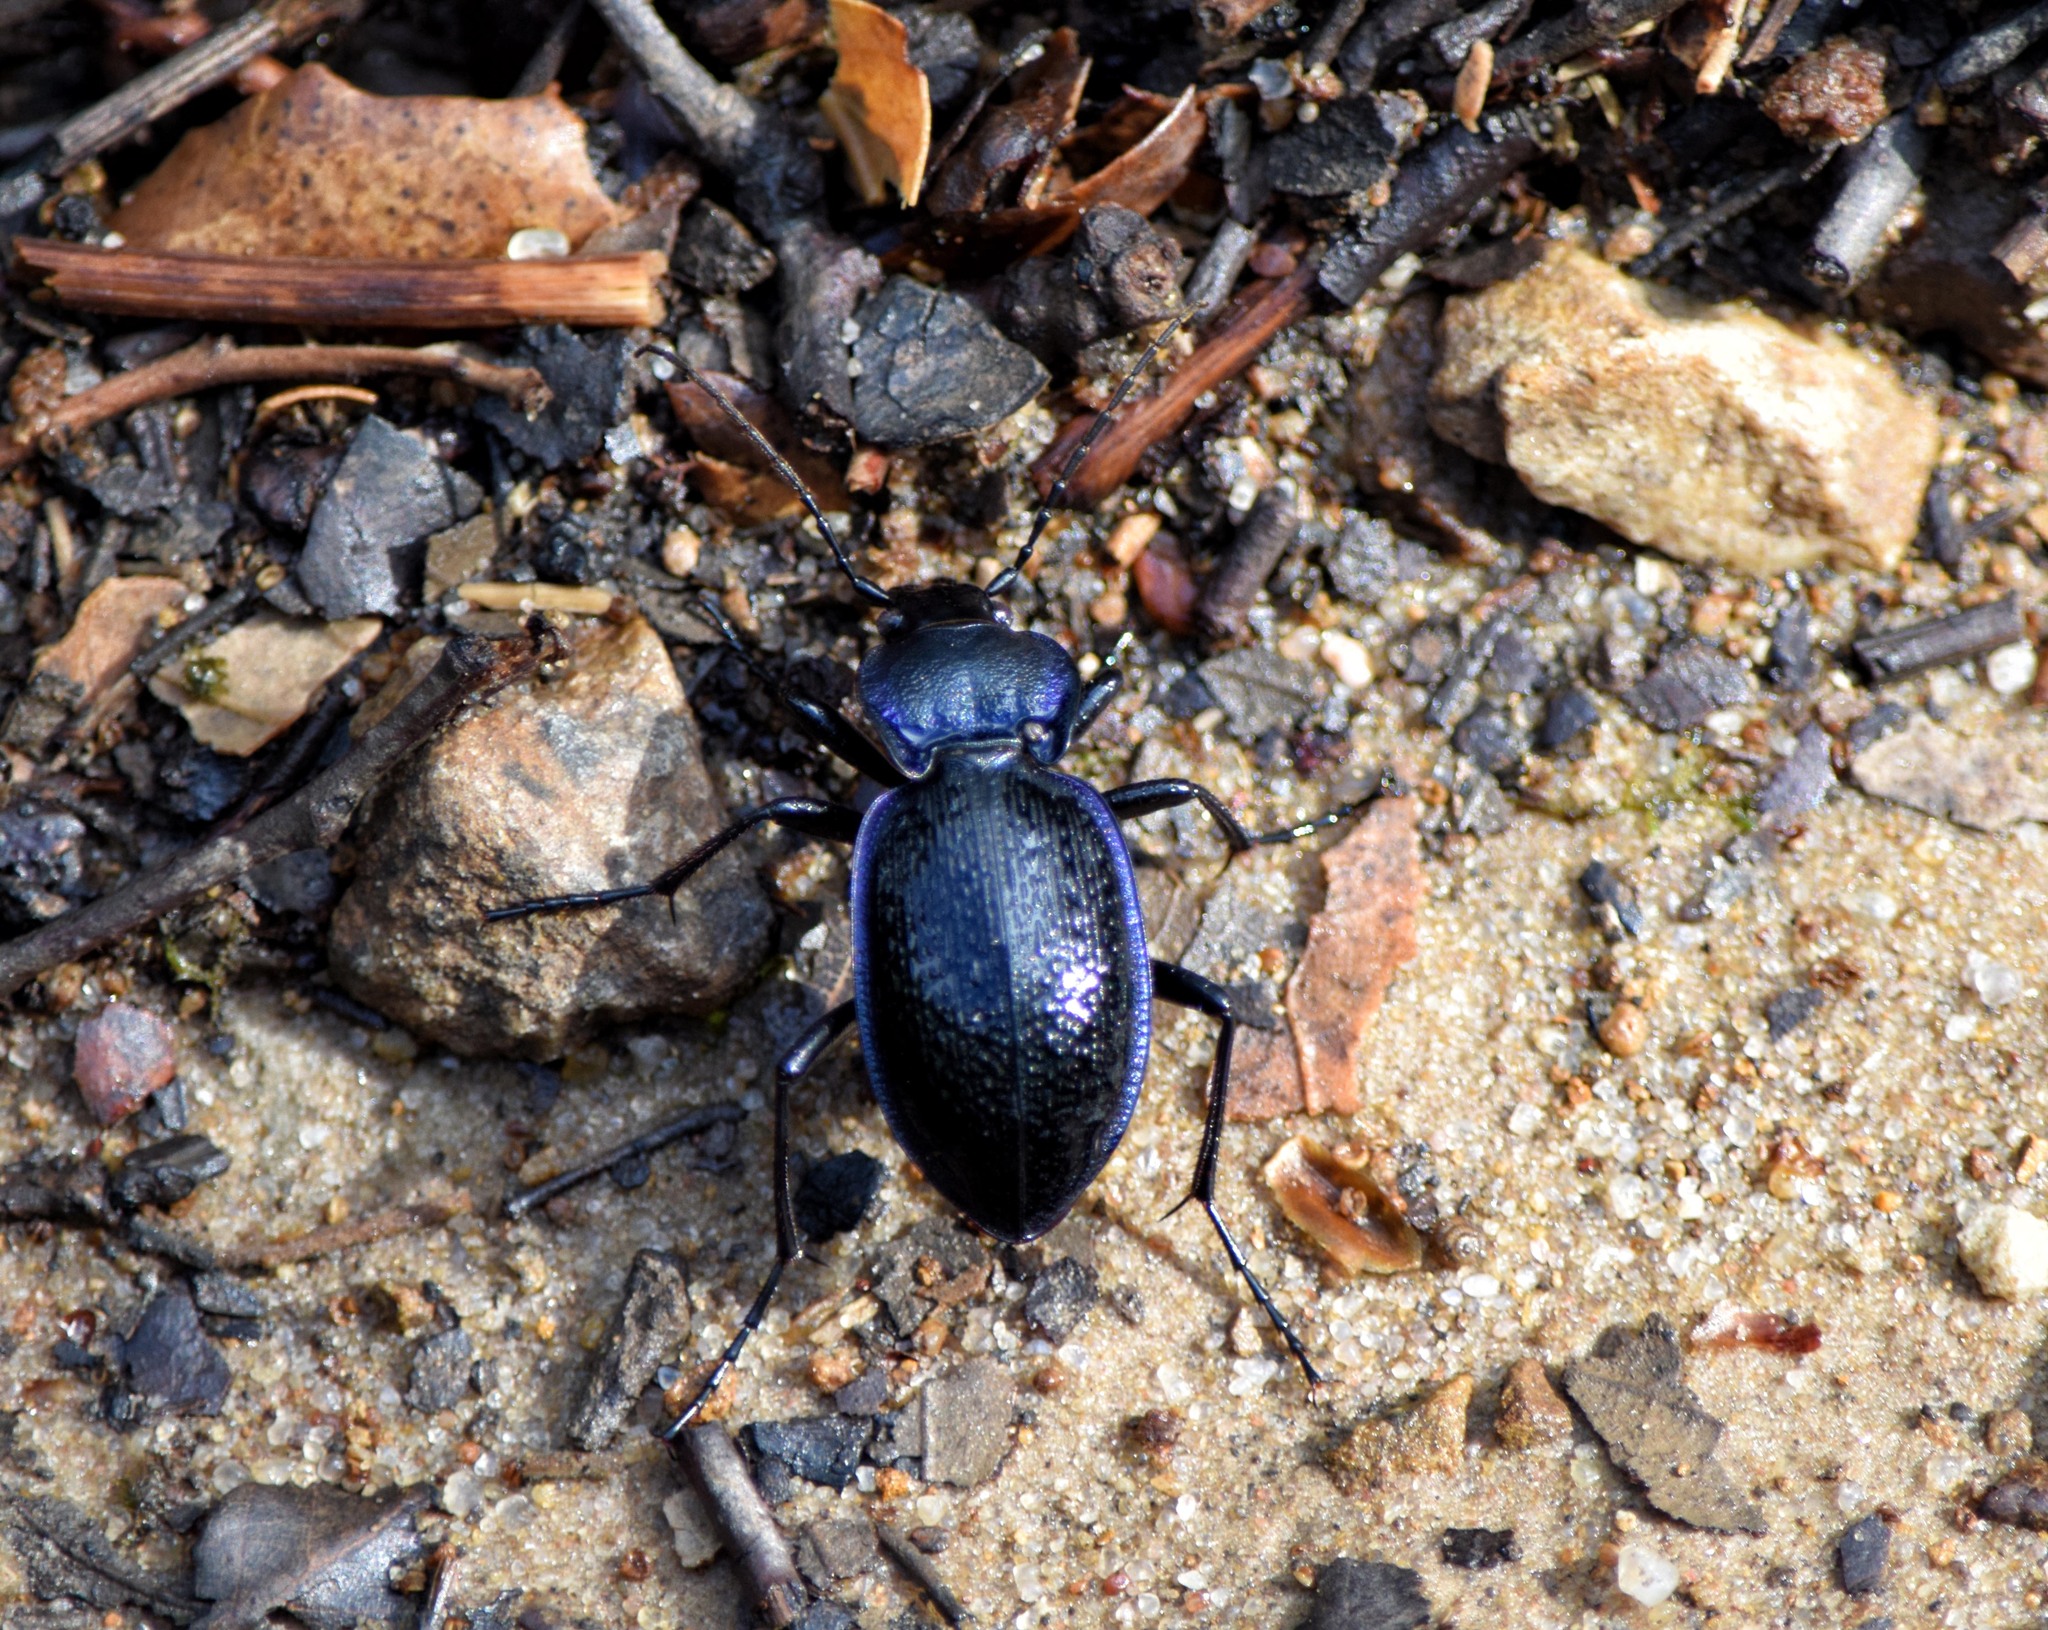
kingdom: Animalia
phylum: Arthropoda
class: Insecta
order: Coleoptera
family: Carabidae
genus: Carabus
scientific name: Carabus dufourii
